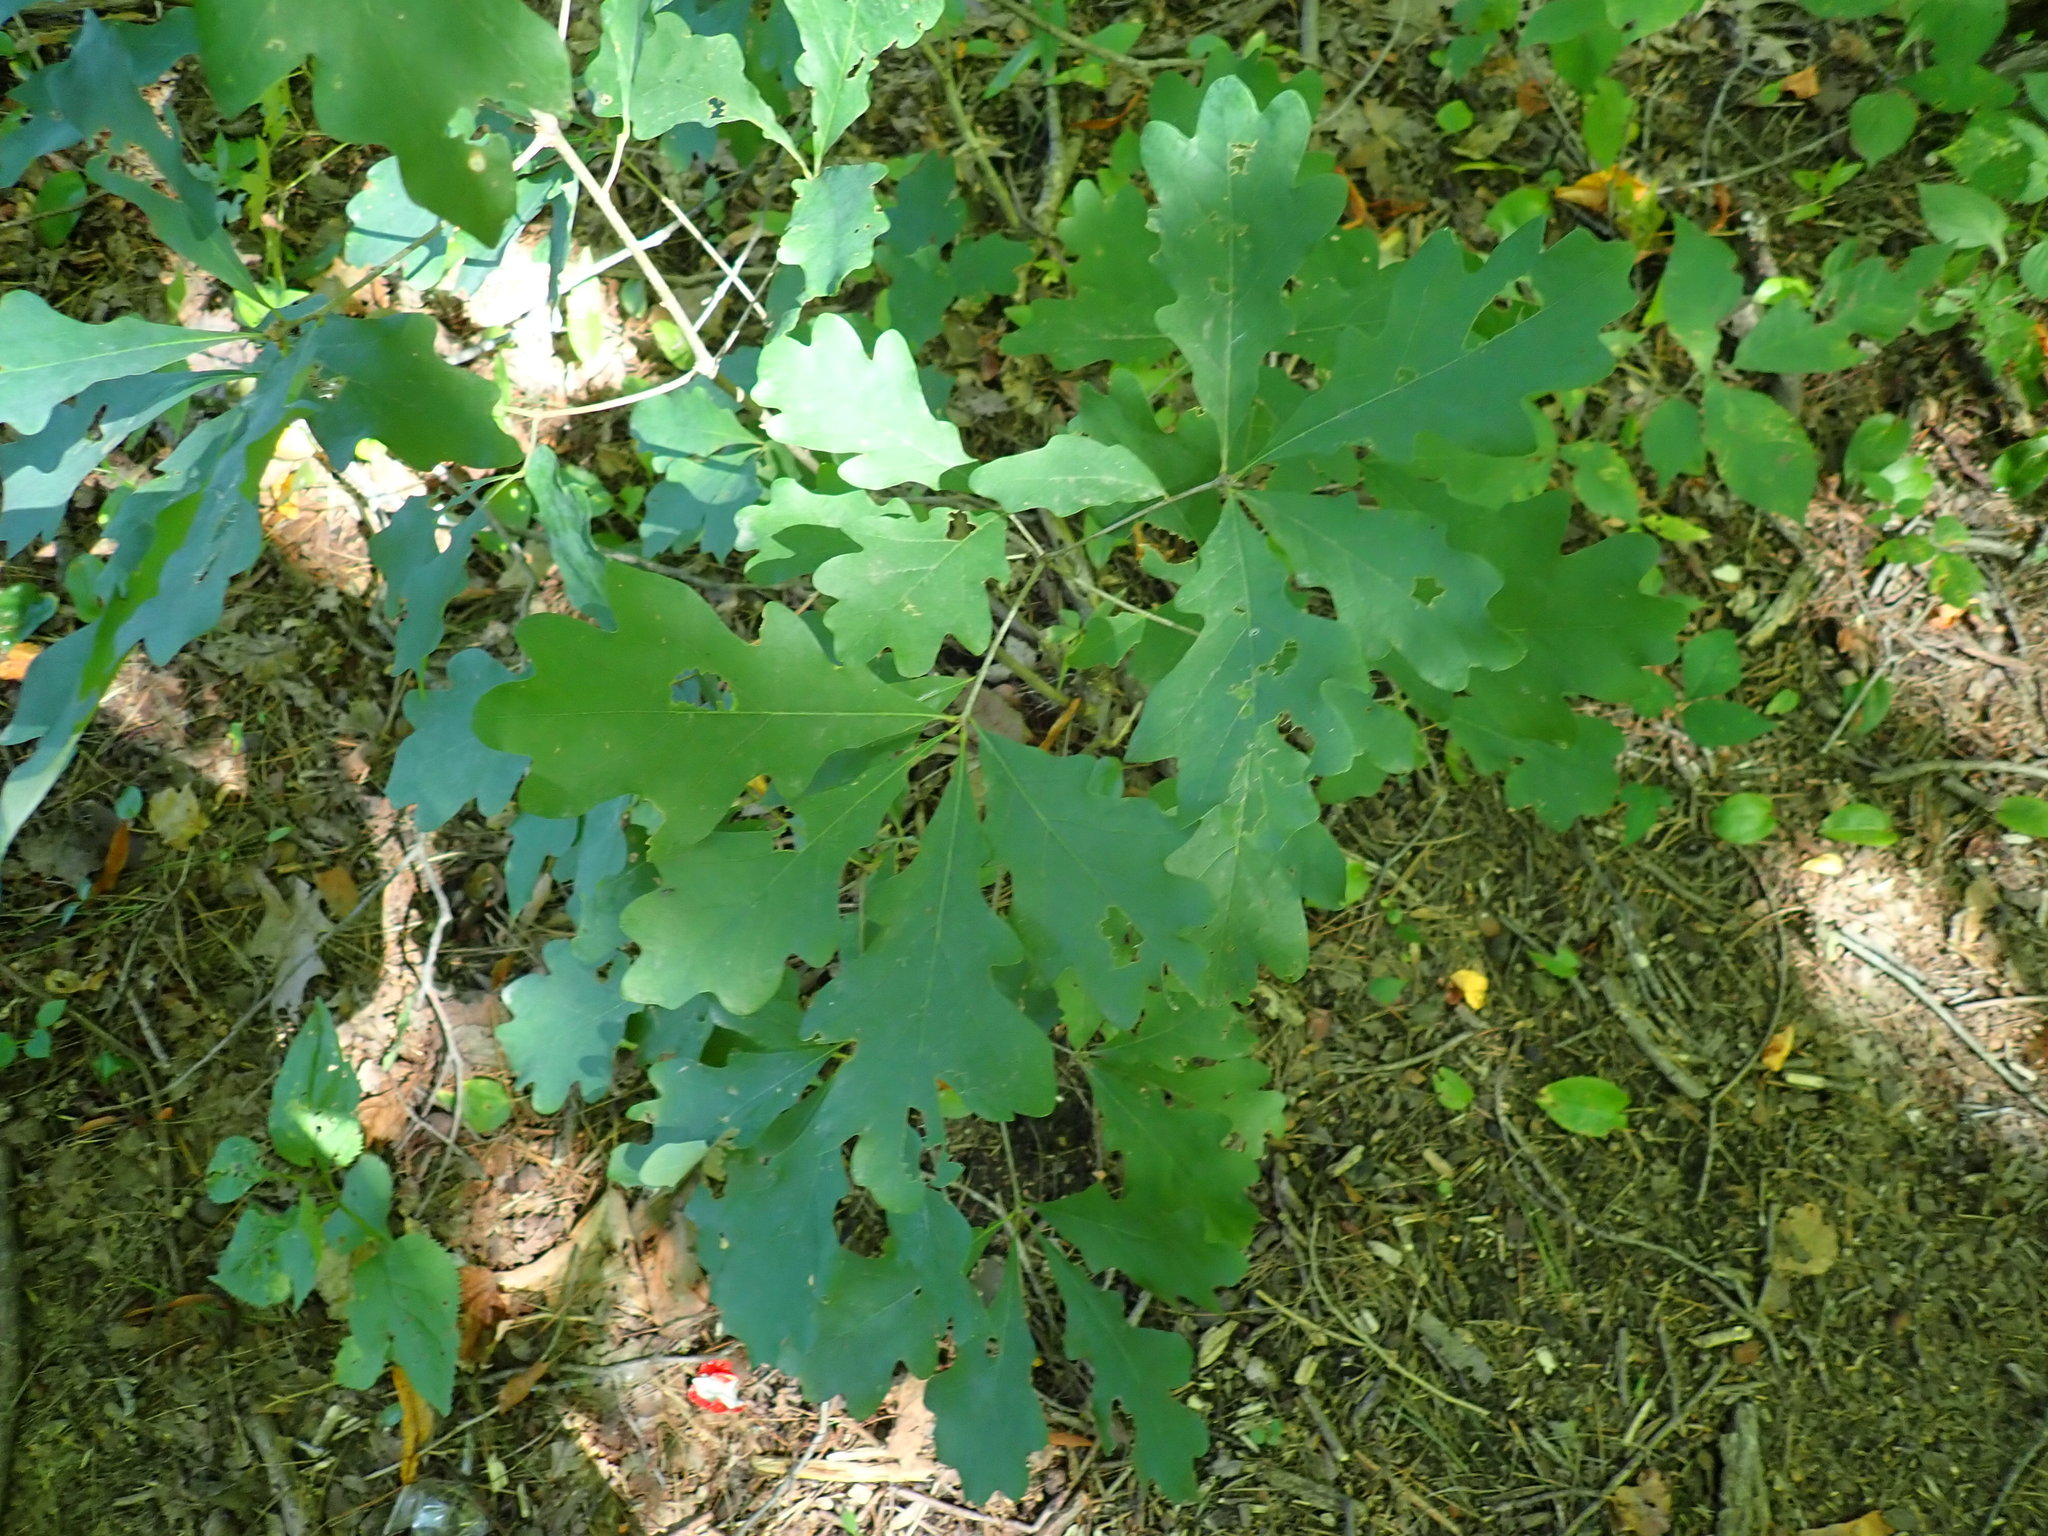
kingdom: Plantae
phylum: Tracheophyta
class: Magnoliopsida
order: Fagales
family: Fagaceae
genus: Quercus
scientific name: Quercus alba
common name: White oak
